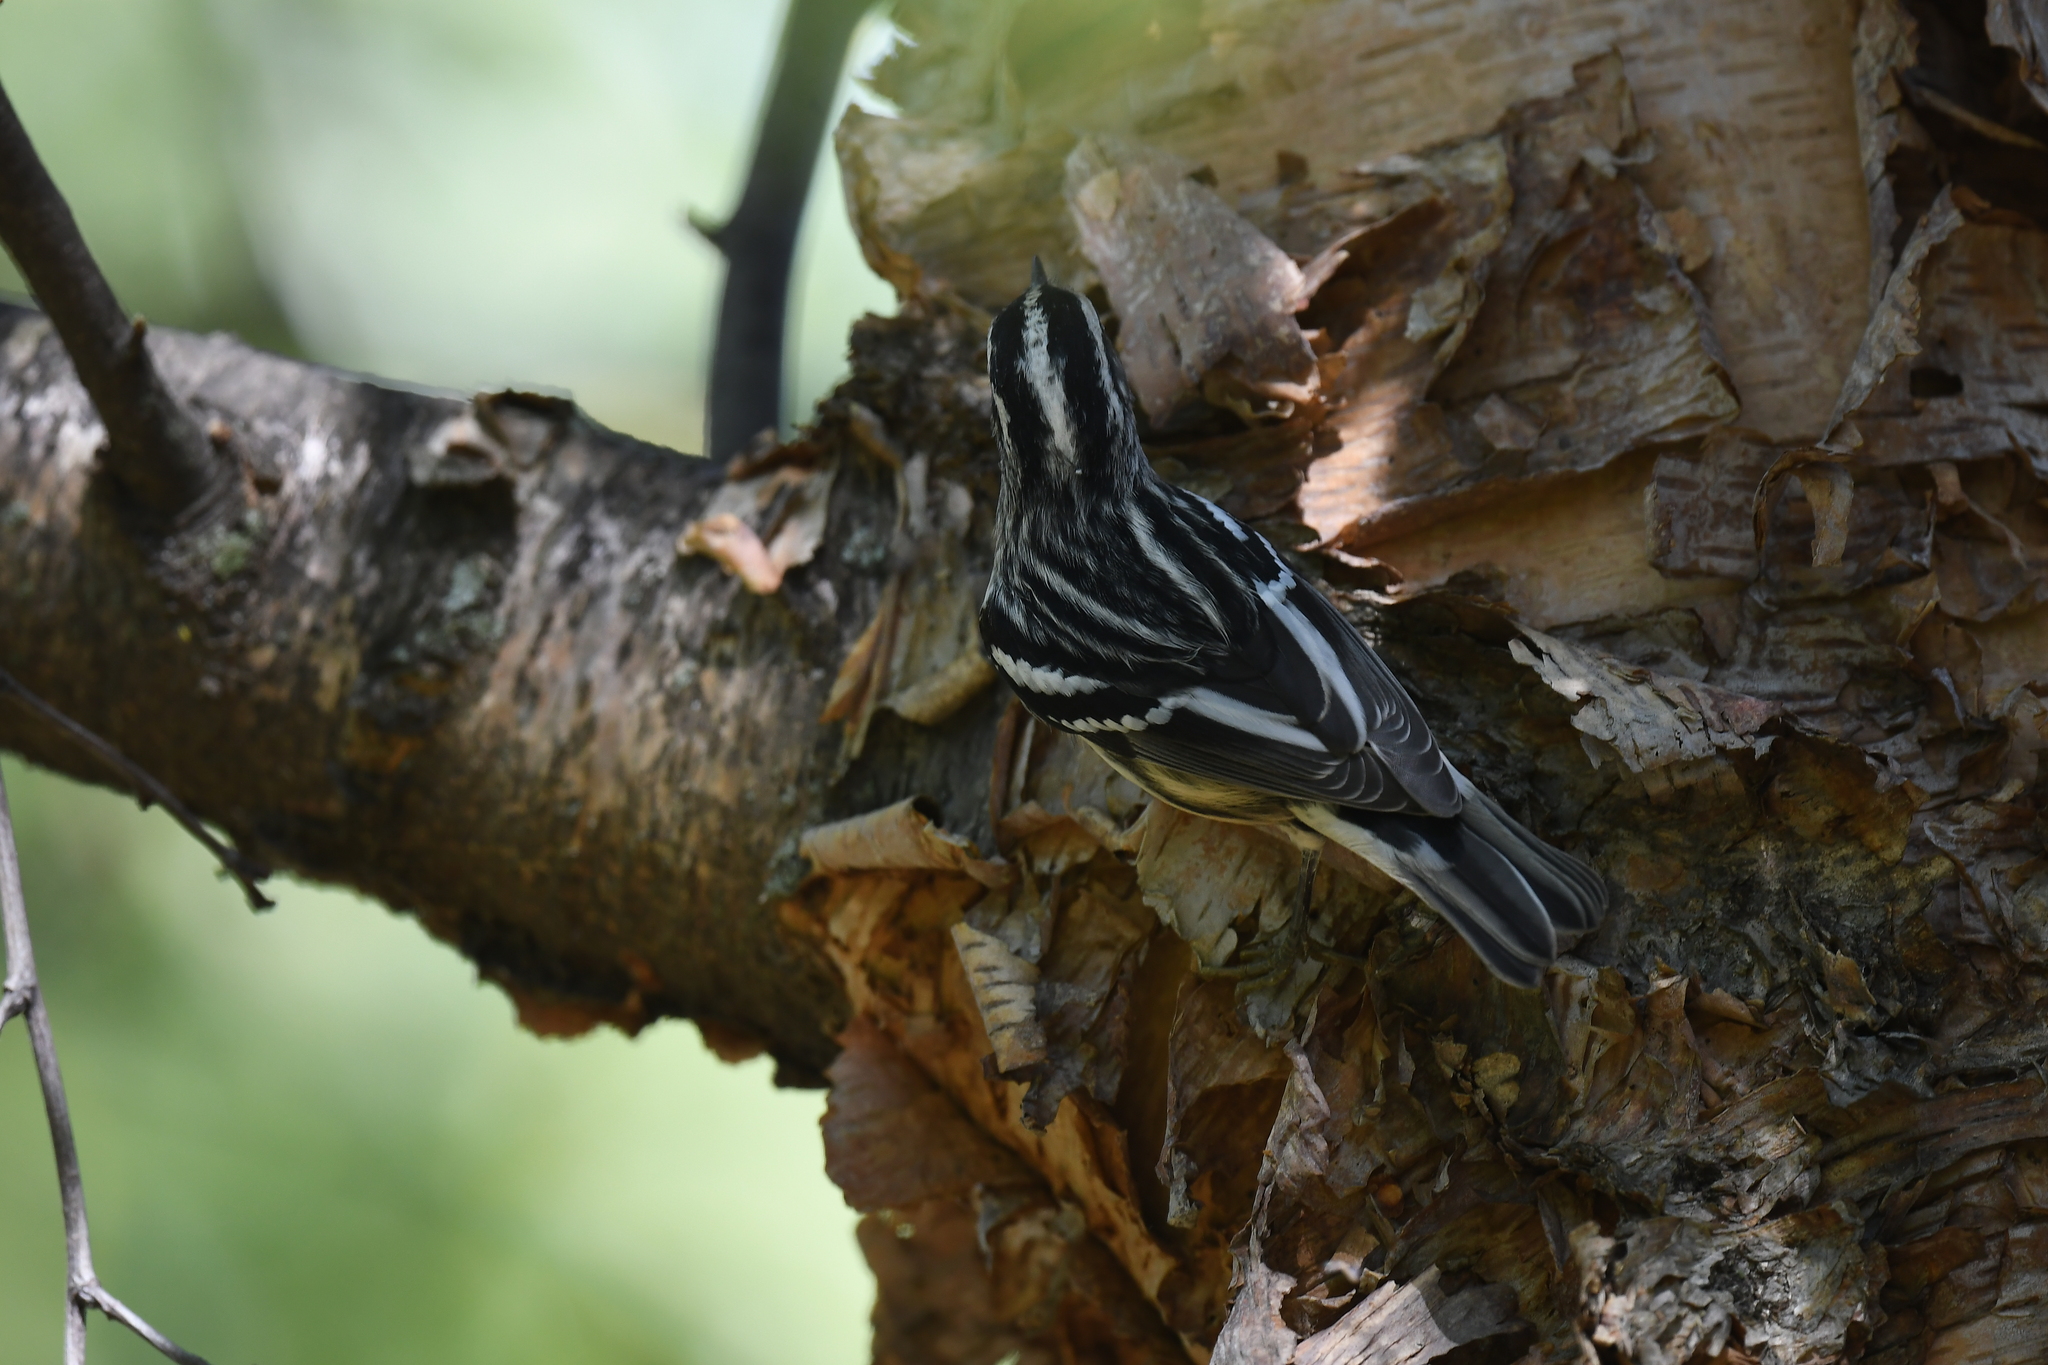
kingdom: Animalia
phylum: Chordata
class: Aves
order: Passeriformes
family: Parulidae
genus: Mniotilta
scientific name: Mniotilta varia
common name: Black-and-white warbler
